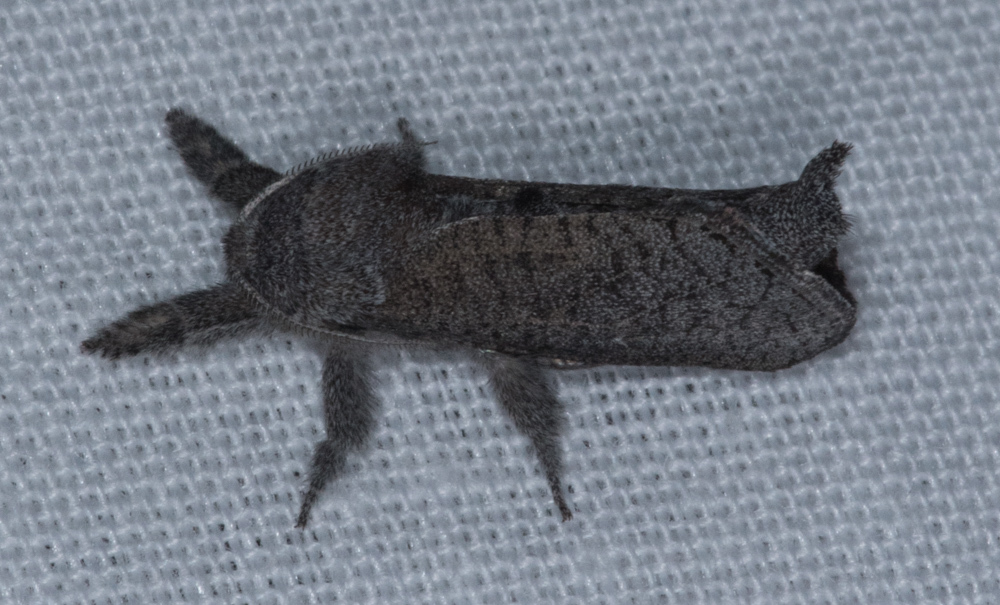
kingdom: Animalia
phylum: Arthropoda
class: Insecta
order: Lepidoptera
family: Cossidae
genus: Givira
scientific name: Givira lotta
